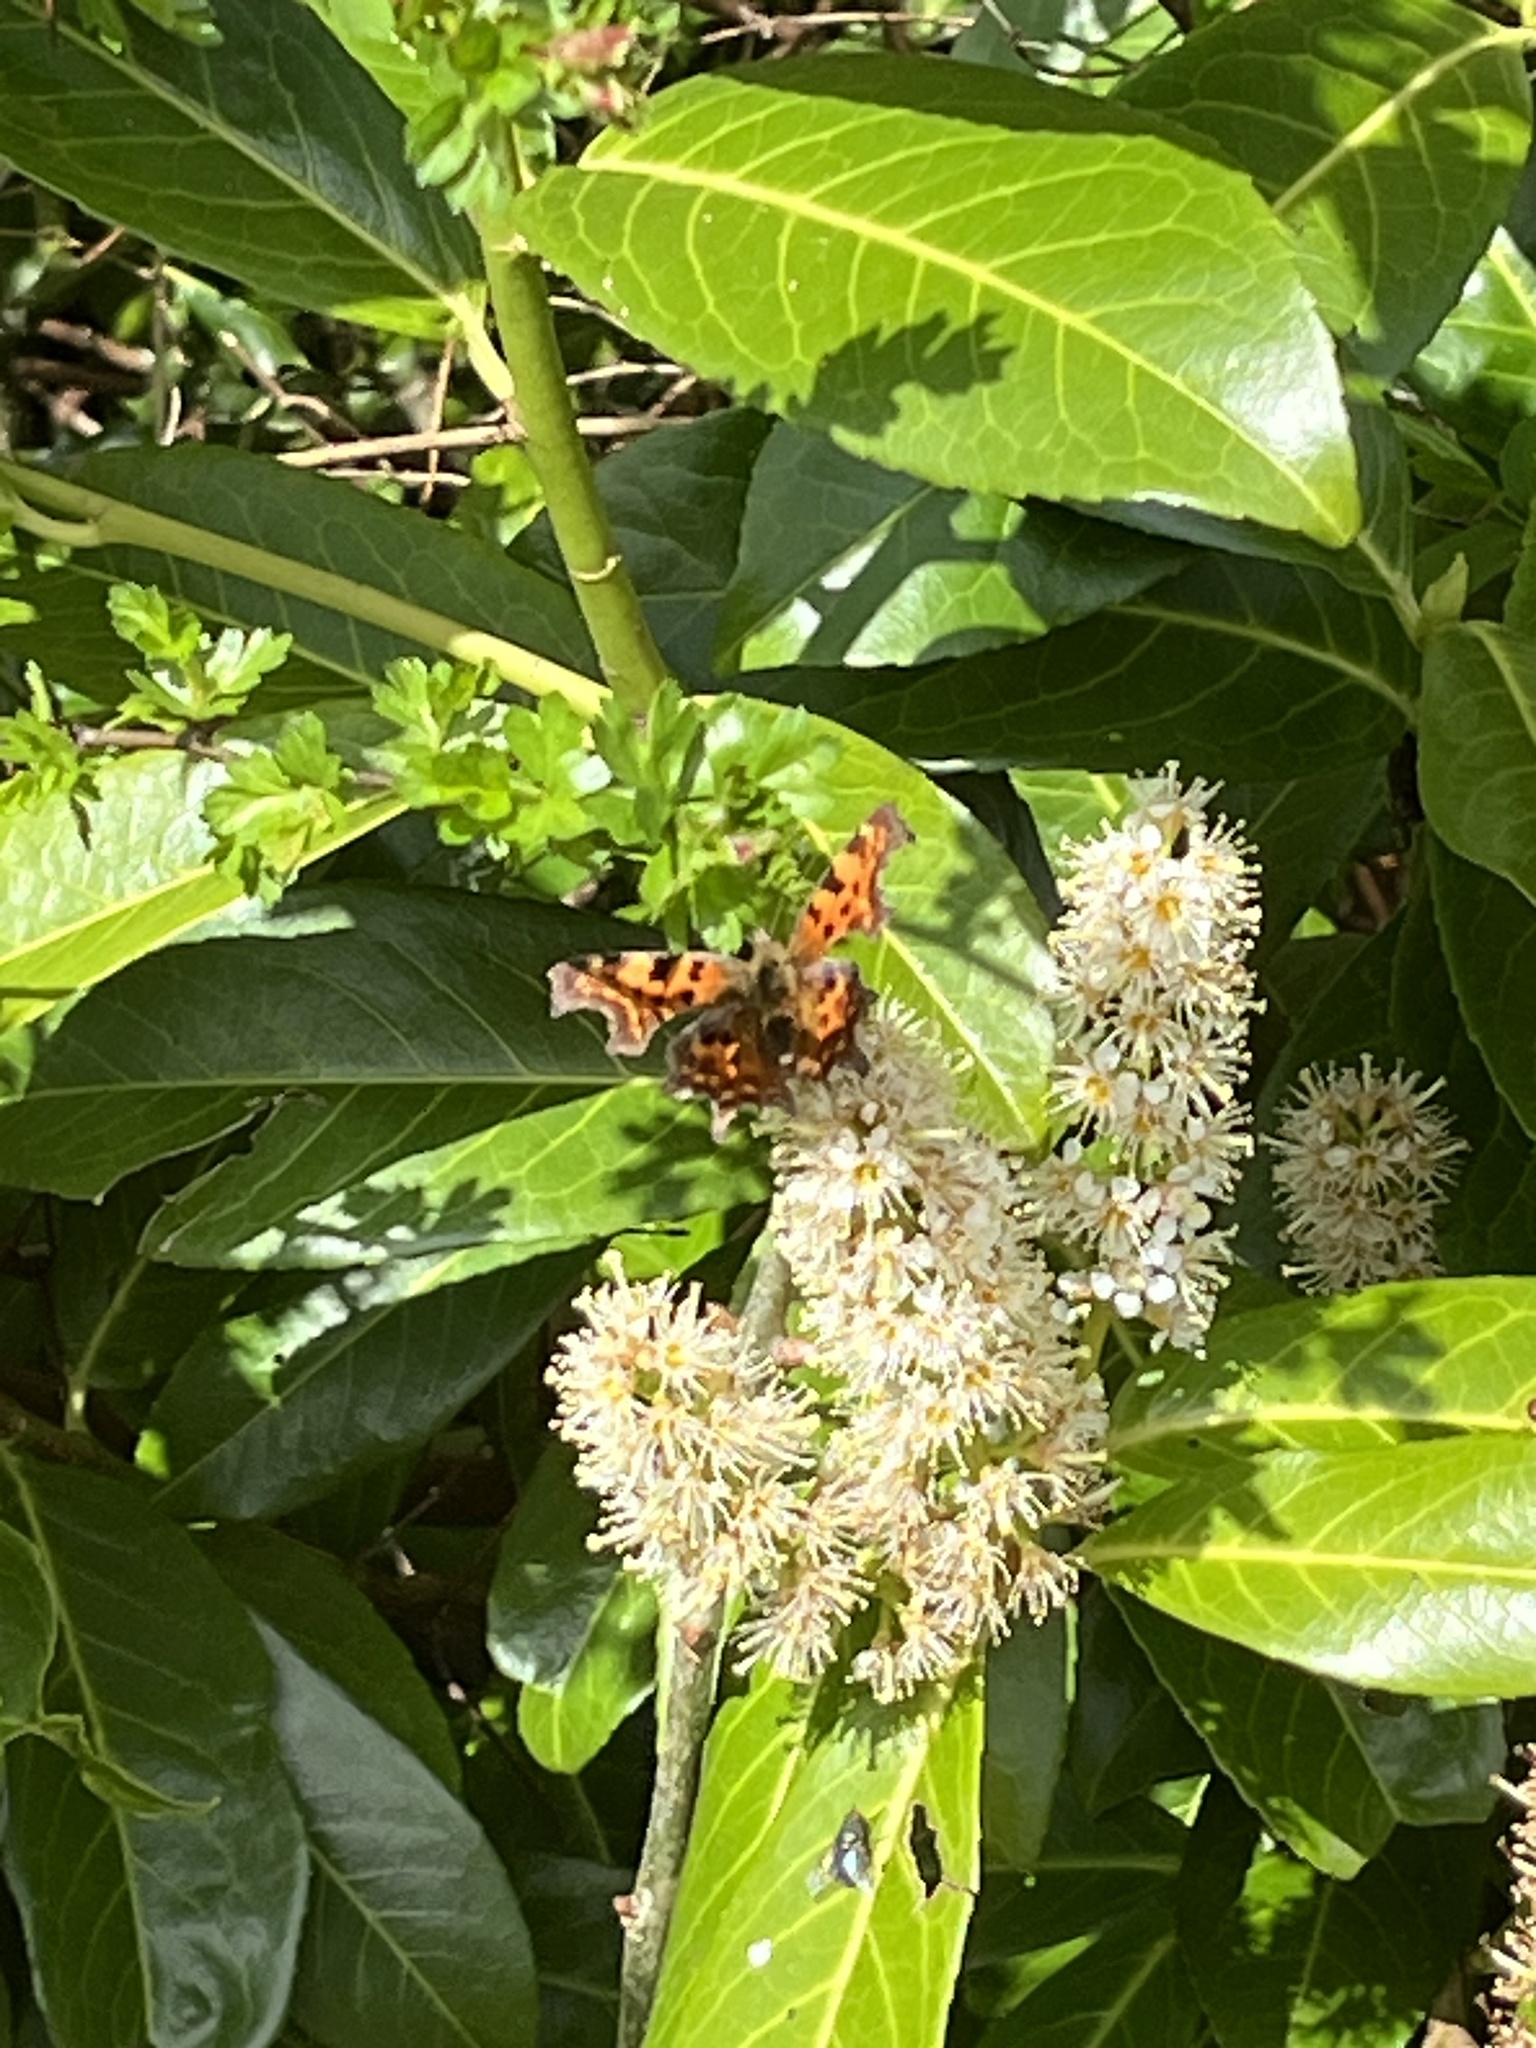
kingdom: Animalia
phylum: Arthropoda
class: Insecta
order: Lepidoptera
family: Nymphalidae
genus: Polygonia
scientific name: Polygonia c-album
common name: Comma
